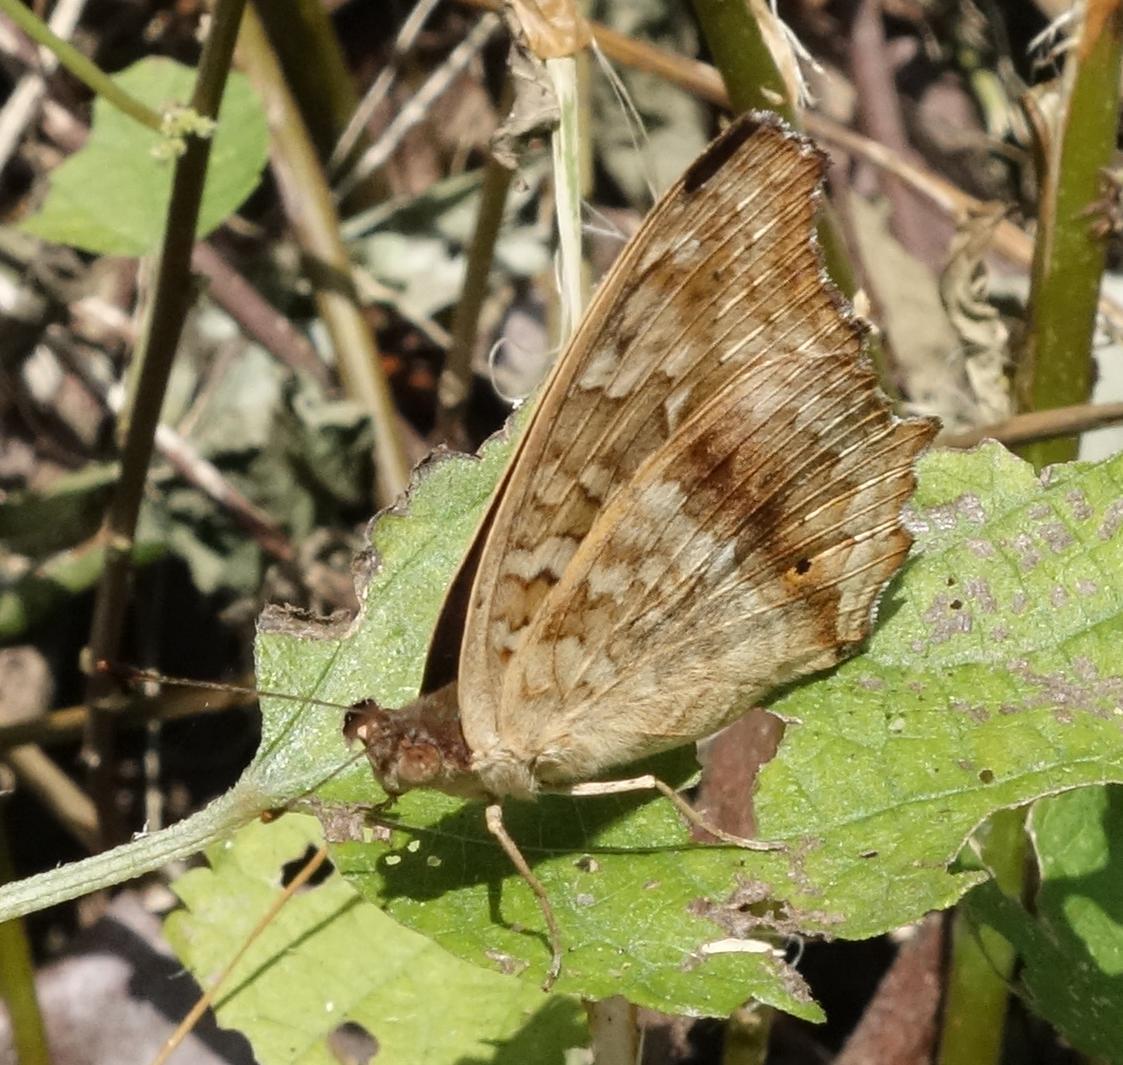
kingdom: Animalia
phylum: Arthropoda
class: Insecta
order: Lepidoptera
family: Nymphalidae
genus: Junonia
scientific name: Junonia lemonias
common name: Lemon pansy
